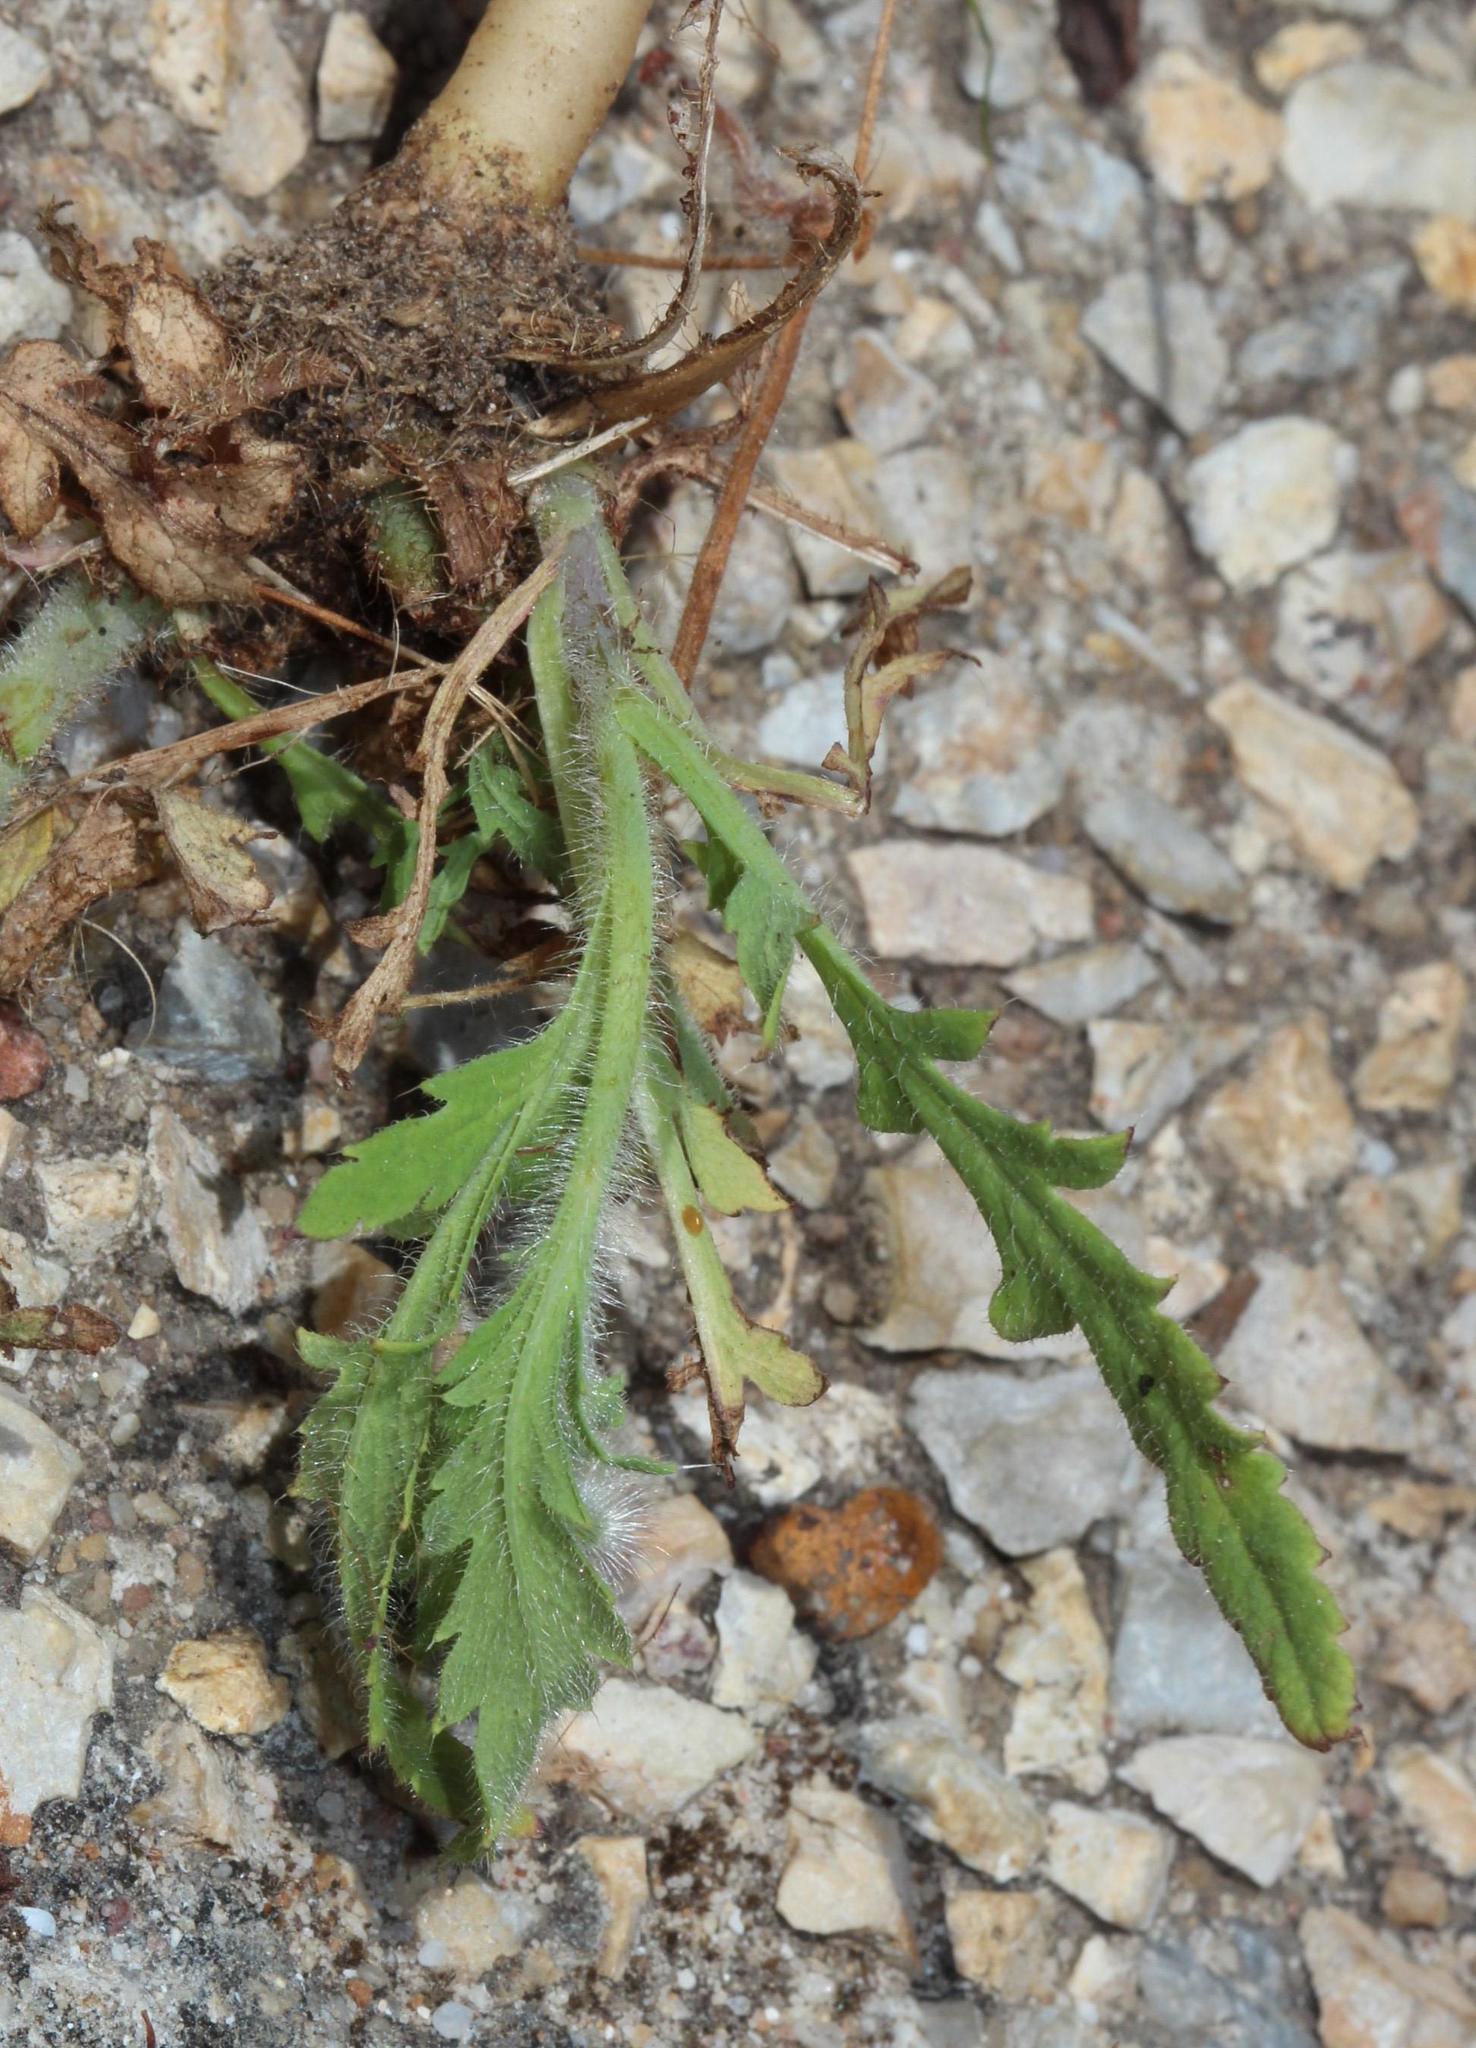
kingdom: Plantae
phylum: Tracheophyta
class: Magnoliopsida
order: Ranunculales
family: Papaveraceae
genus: Papaver
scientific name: Papaver rhoeas
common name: Corn poppy
